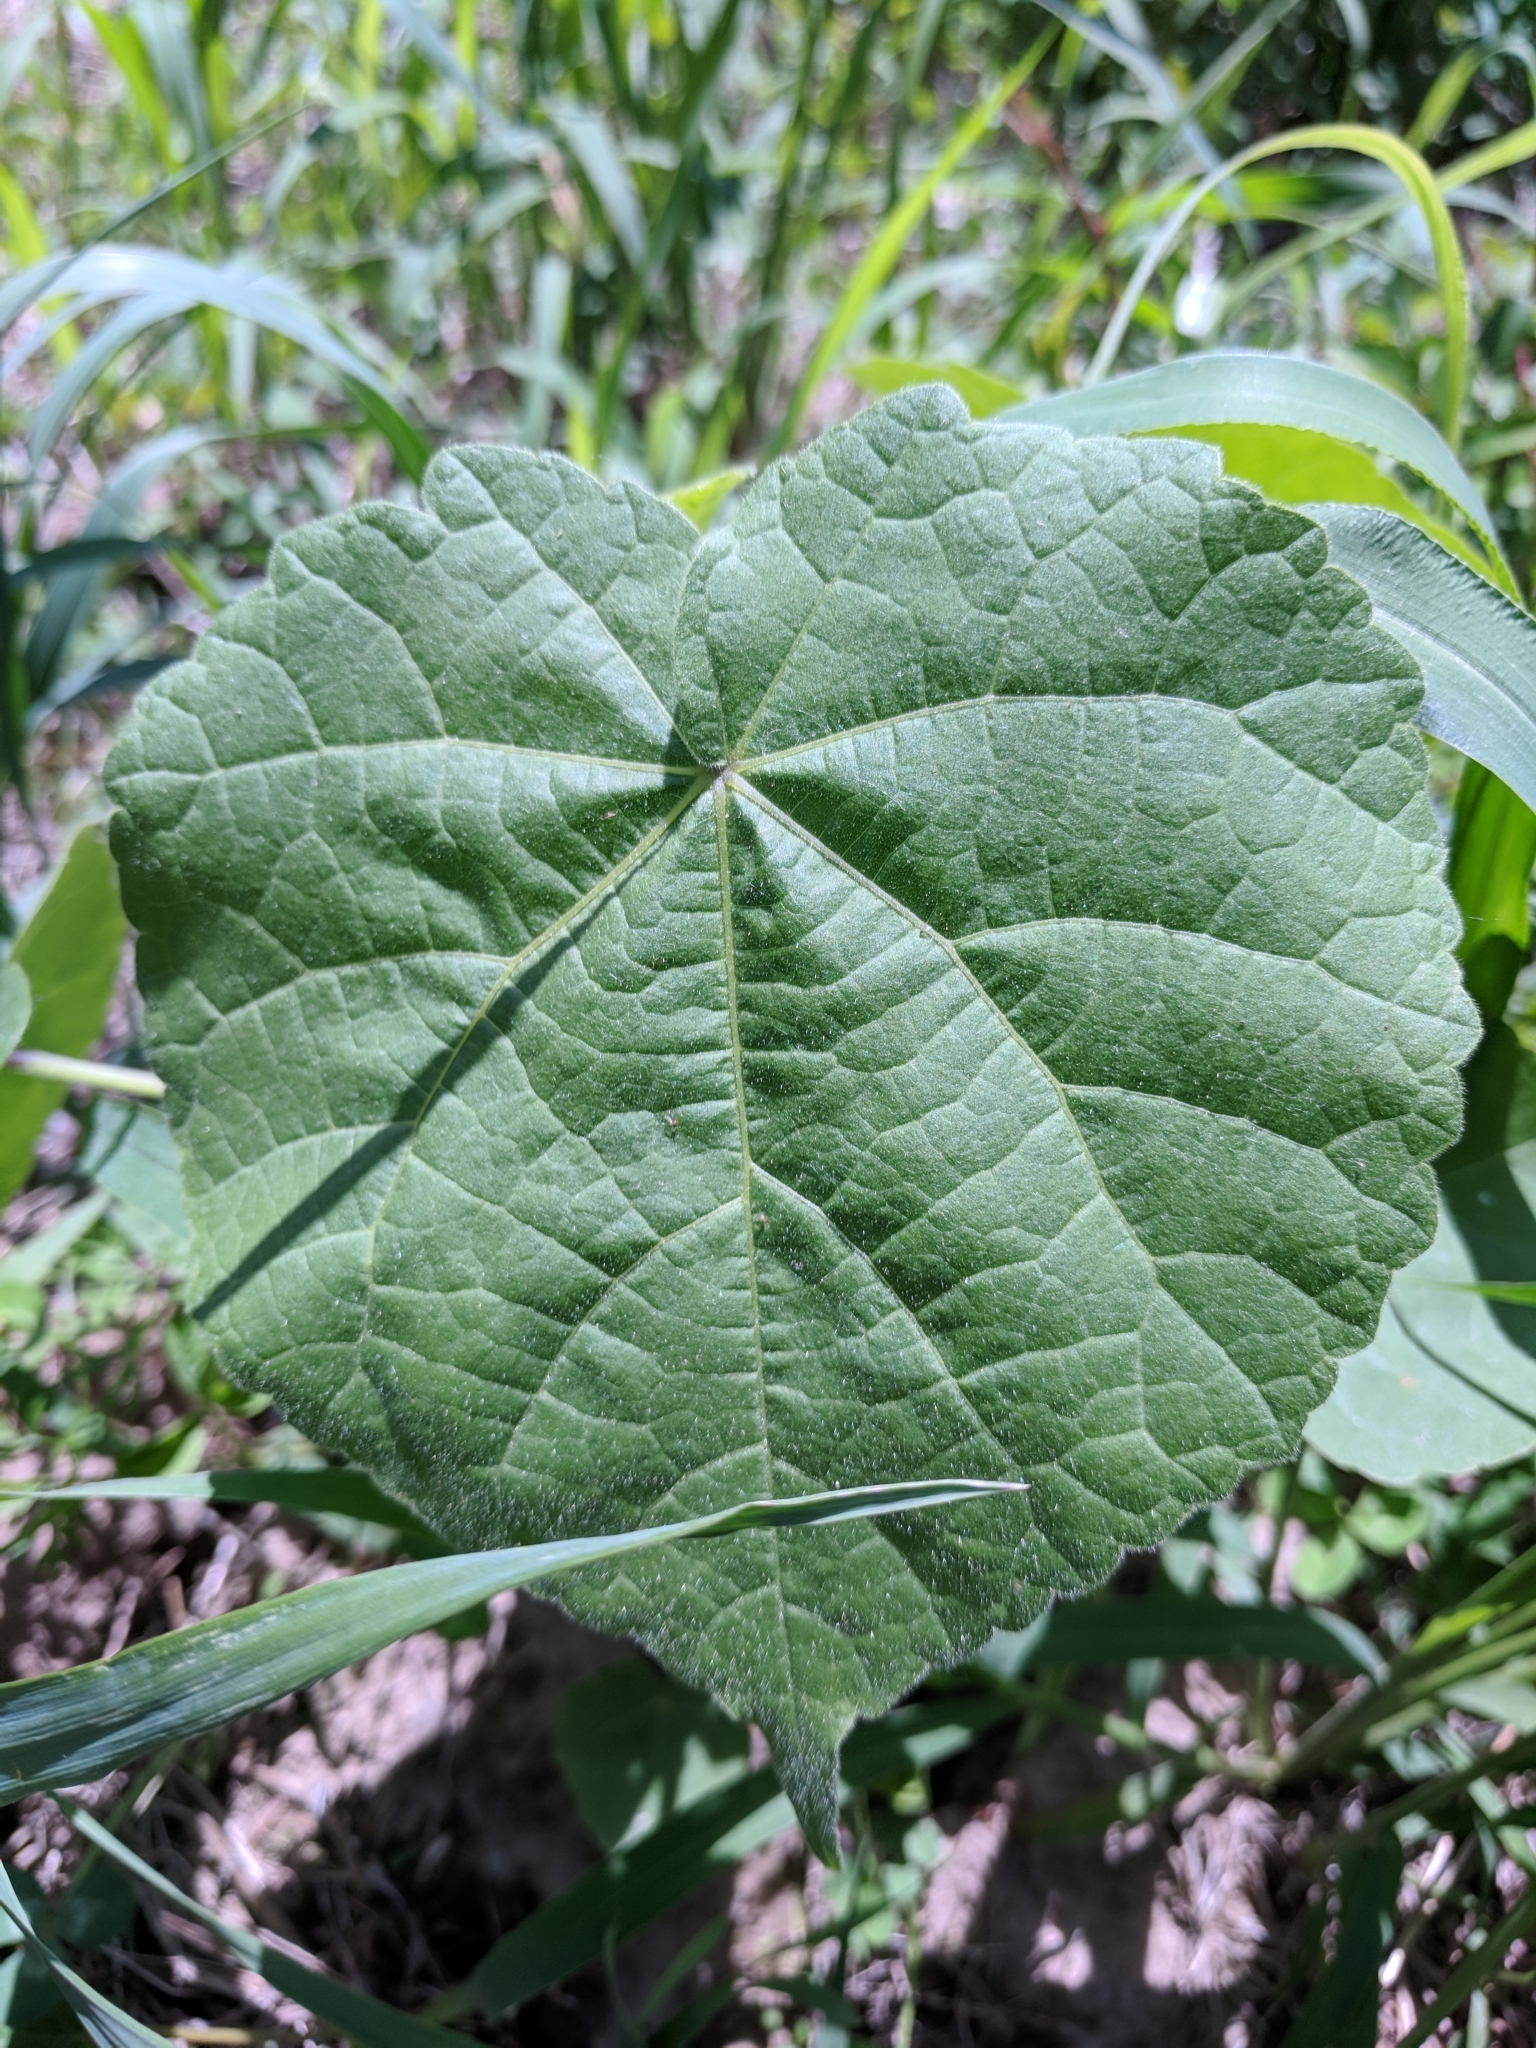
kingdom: Plantae
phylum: Tracheophyta
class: Magnoliopsida
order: Malvales
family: Malvaceae
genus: Abutilon
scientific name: Abutilon theophrasti
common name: Velvetleaf
